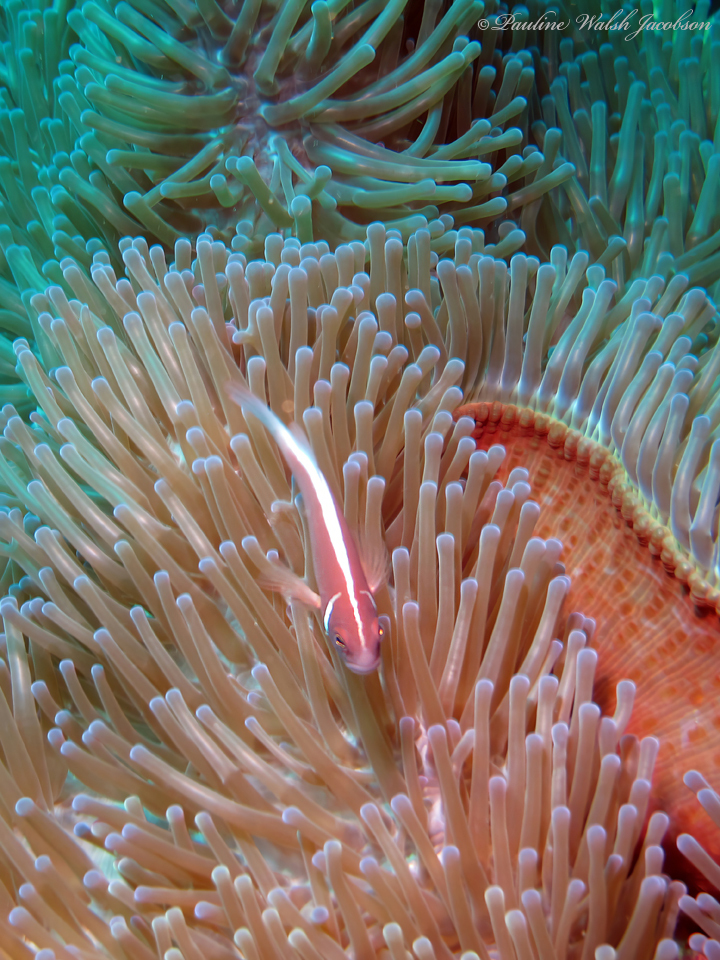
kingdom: Animalia
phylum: Chordata
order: Perciformes
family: Pomacentridae
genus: Amphiprion
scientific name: Amphiprion perideraion
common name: Pink anemonefish
